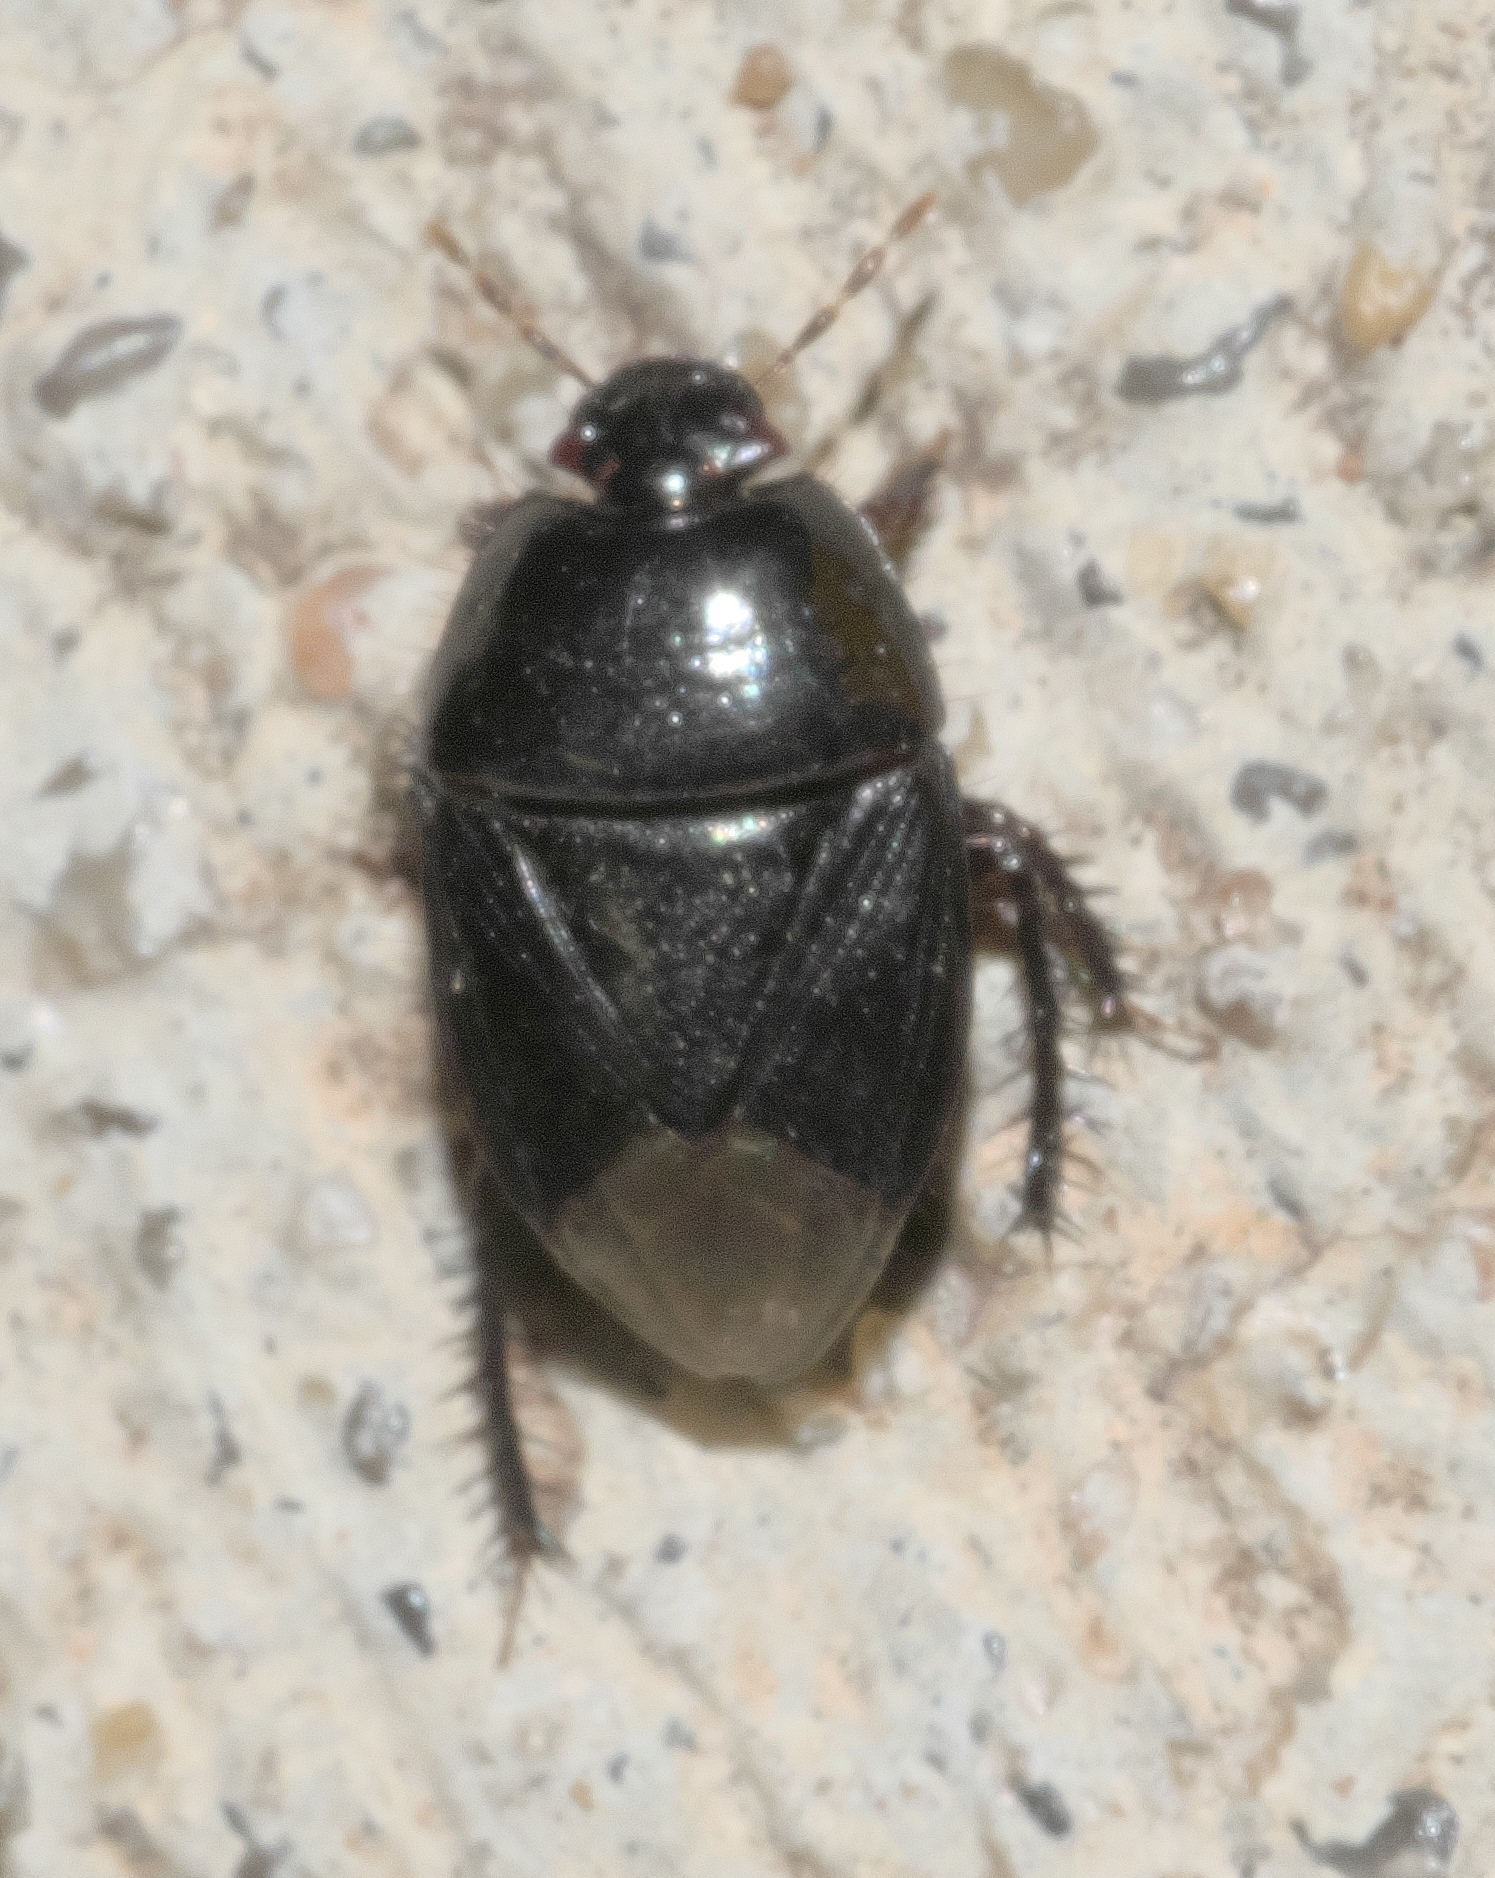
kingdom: Animalia
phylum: Arthropoda
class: Insecta
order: Hemiptera
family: Cydnidae
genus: Pangaeus
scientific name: Pangaeus bilineatus
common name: Burrower bug
